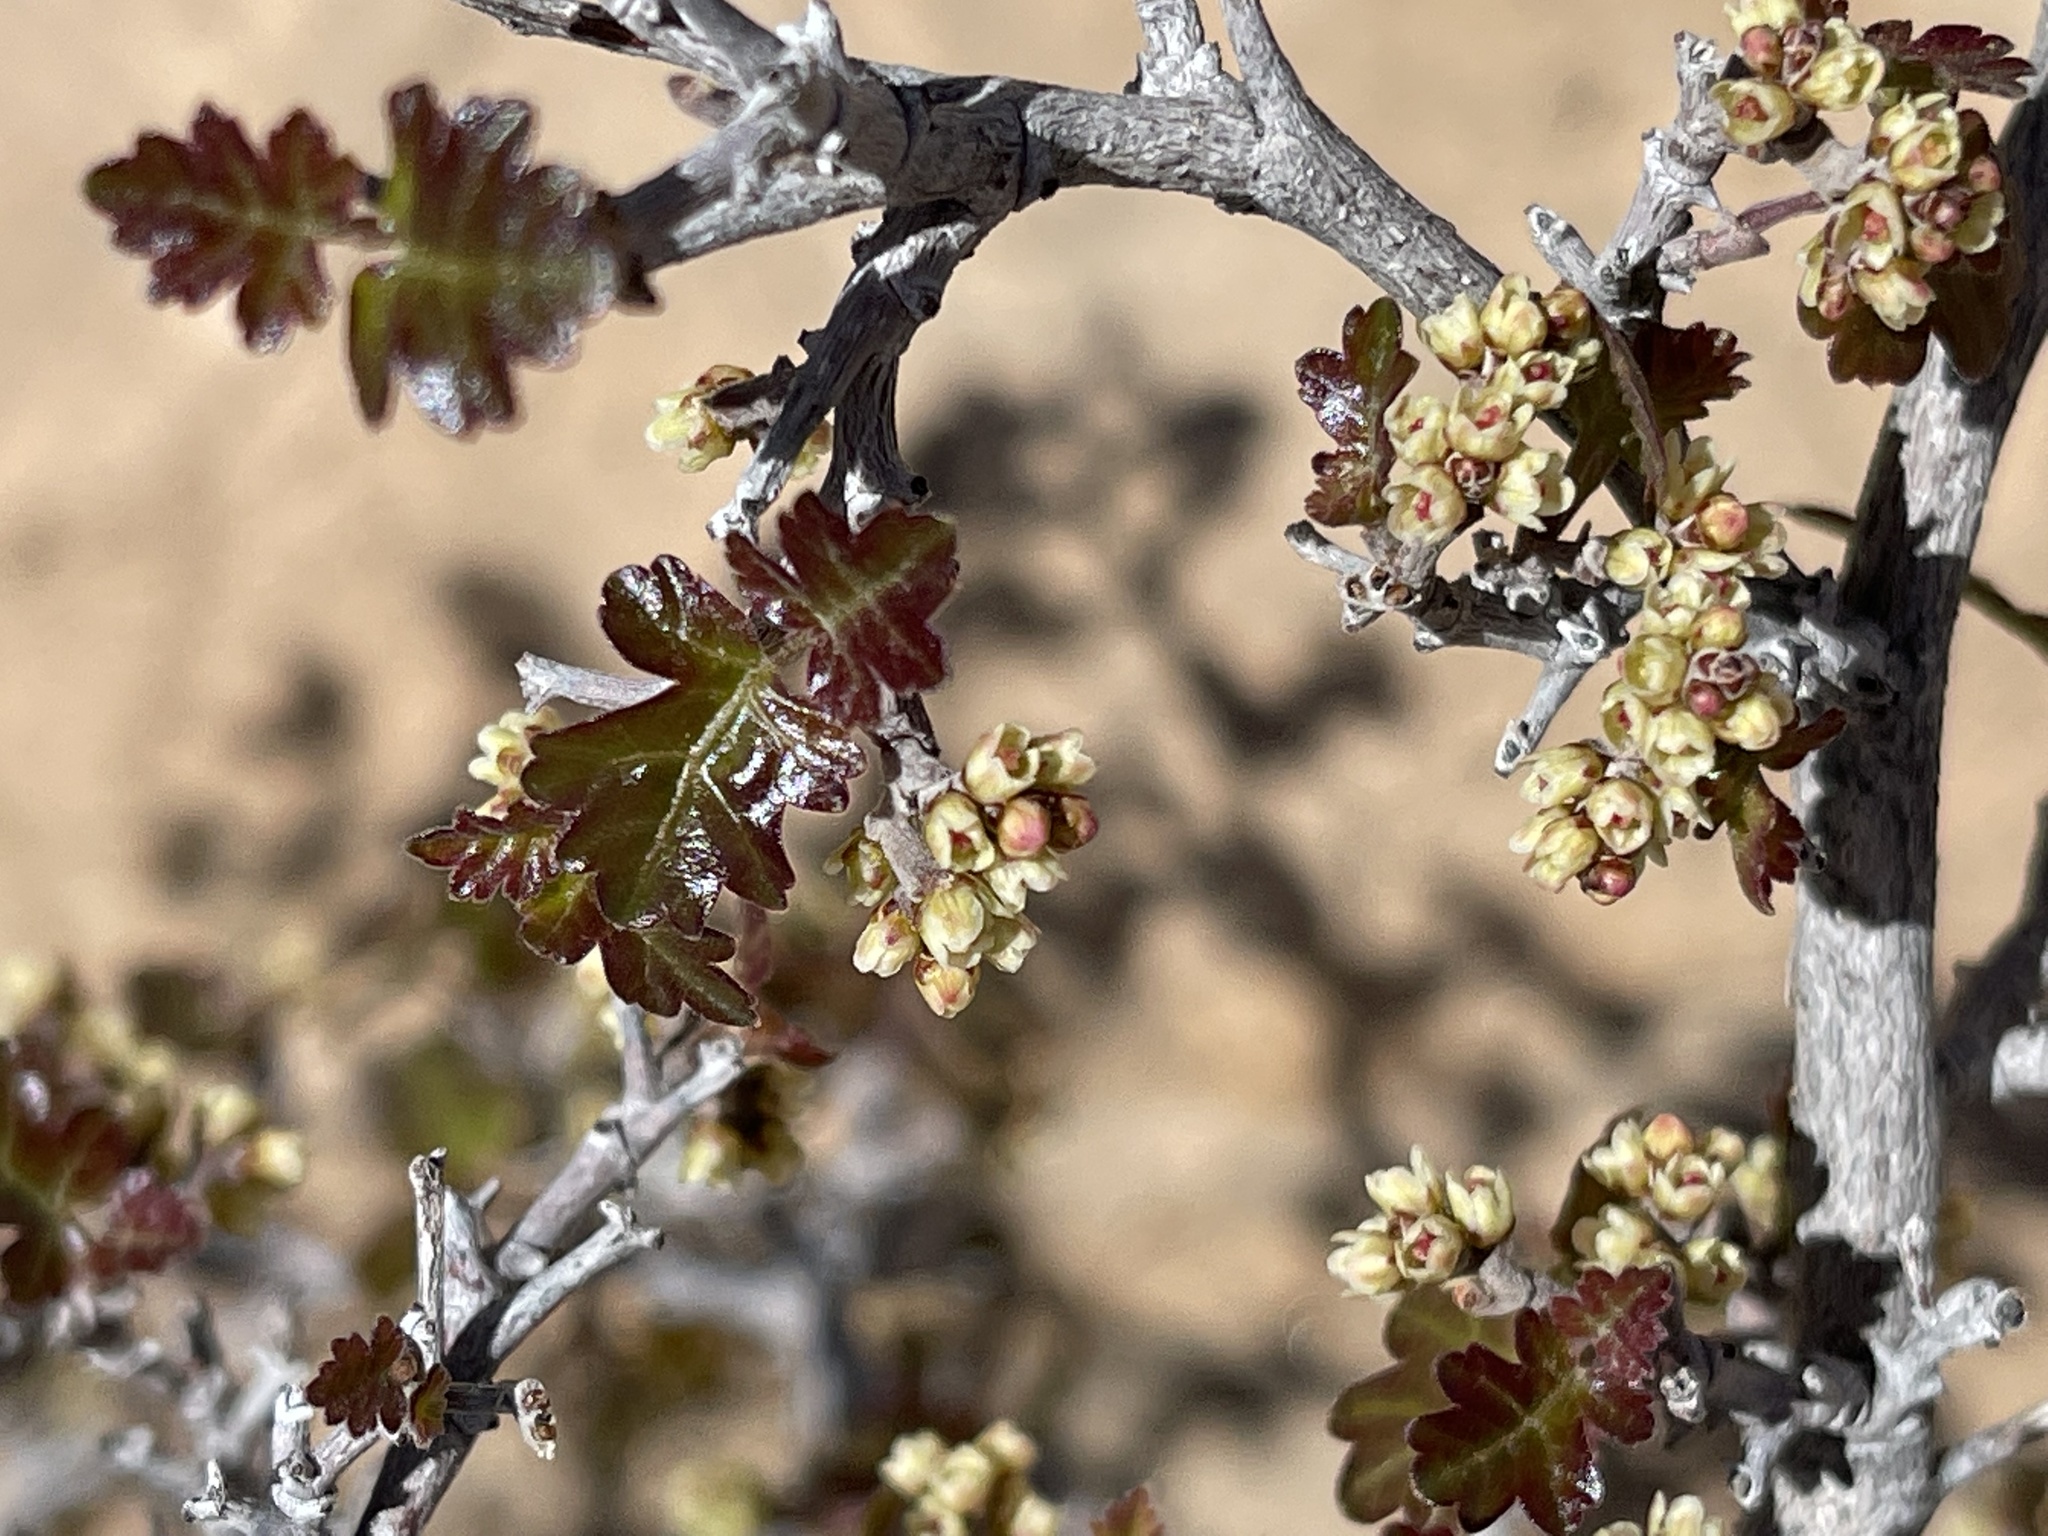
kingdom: Plantae
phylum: Tracheophyta
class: Magnoliopsida
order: Sapindales
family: Anacardiaceae
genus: Rhus
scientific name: Rhus aromatica
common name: Aromatic sumac
